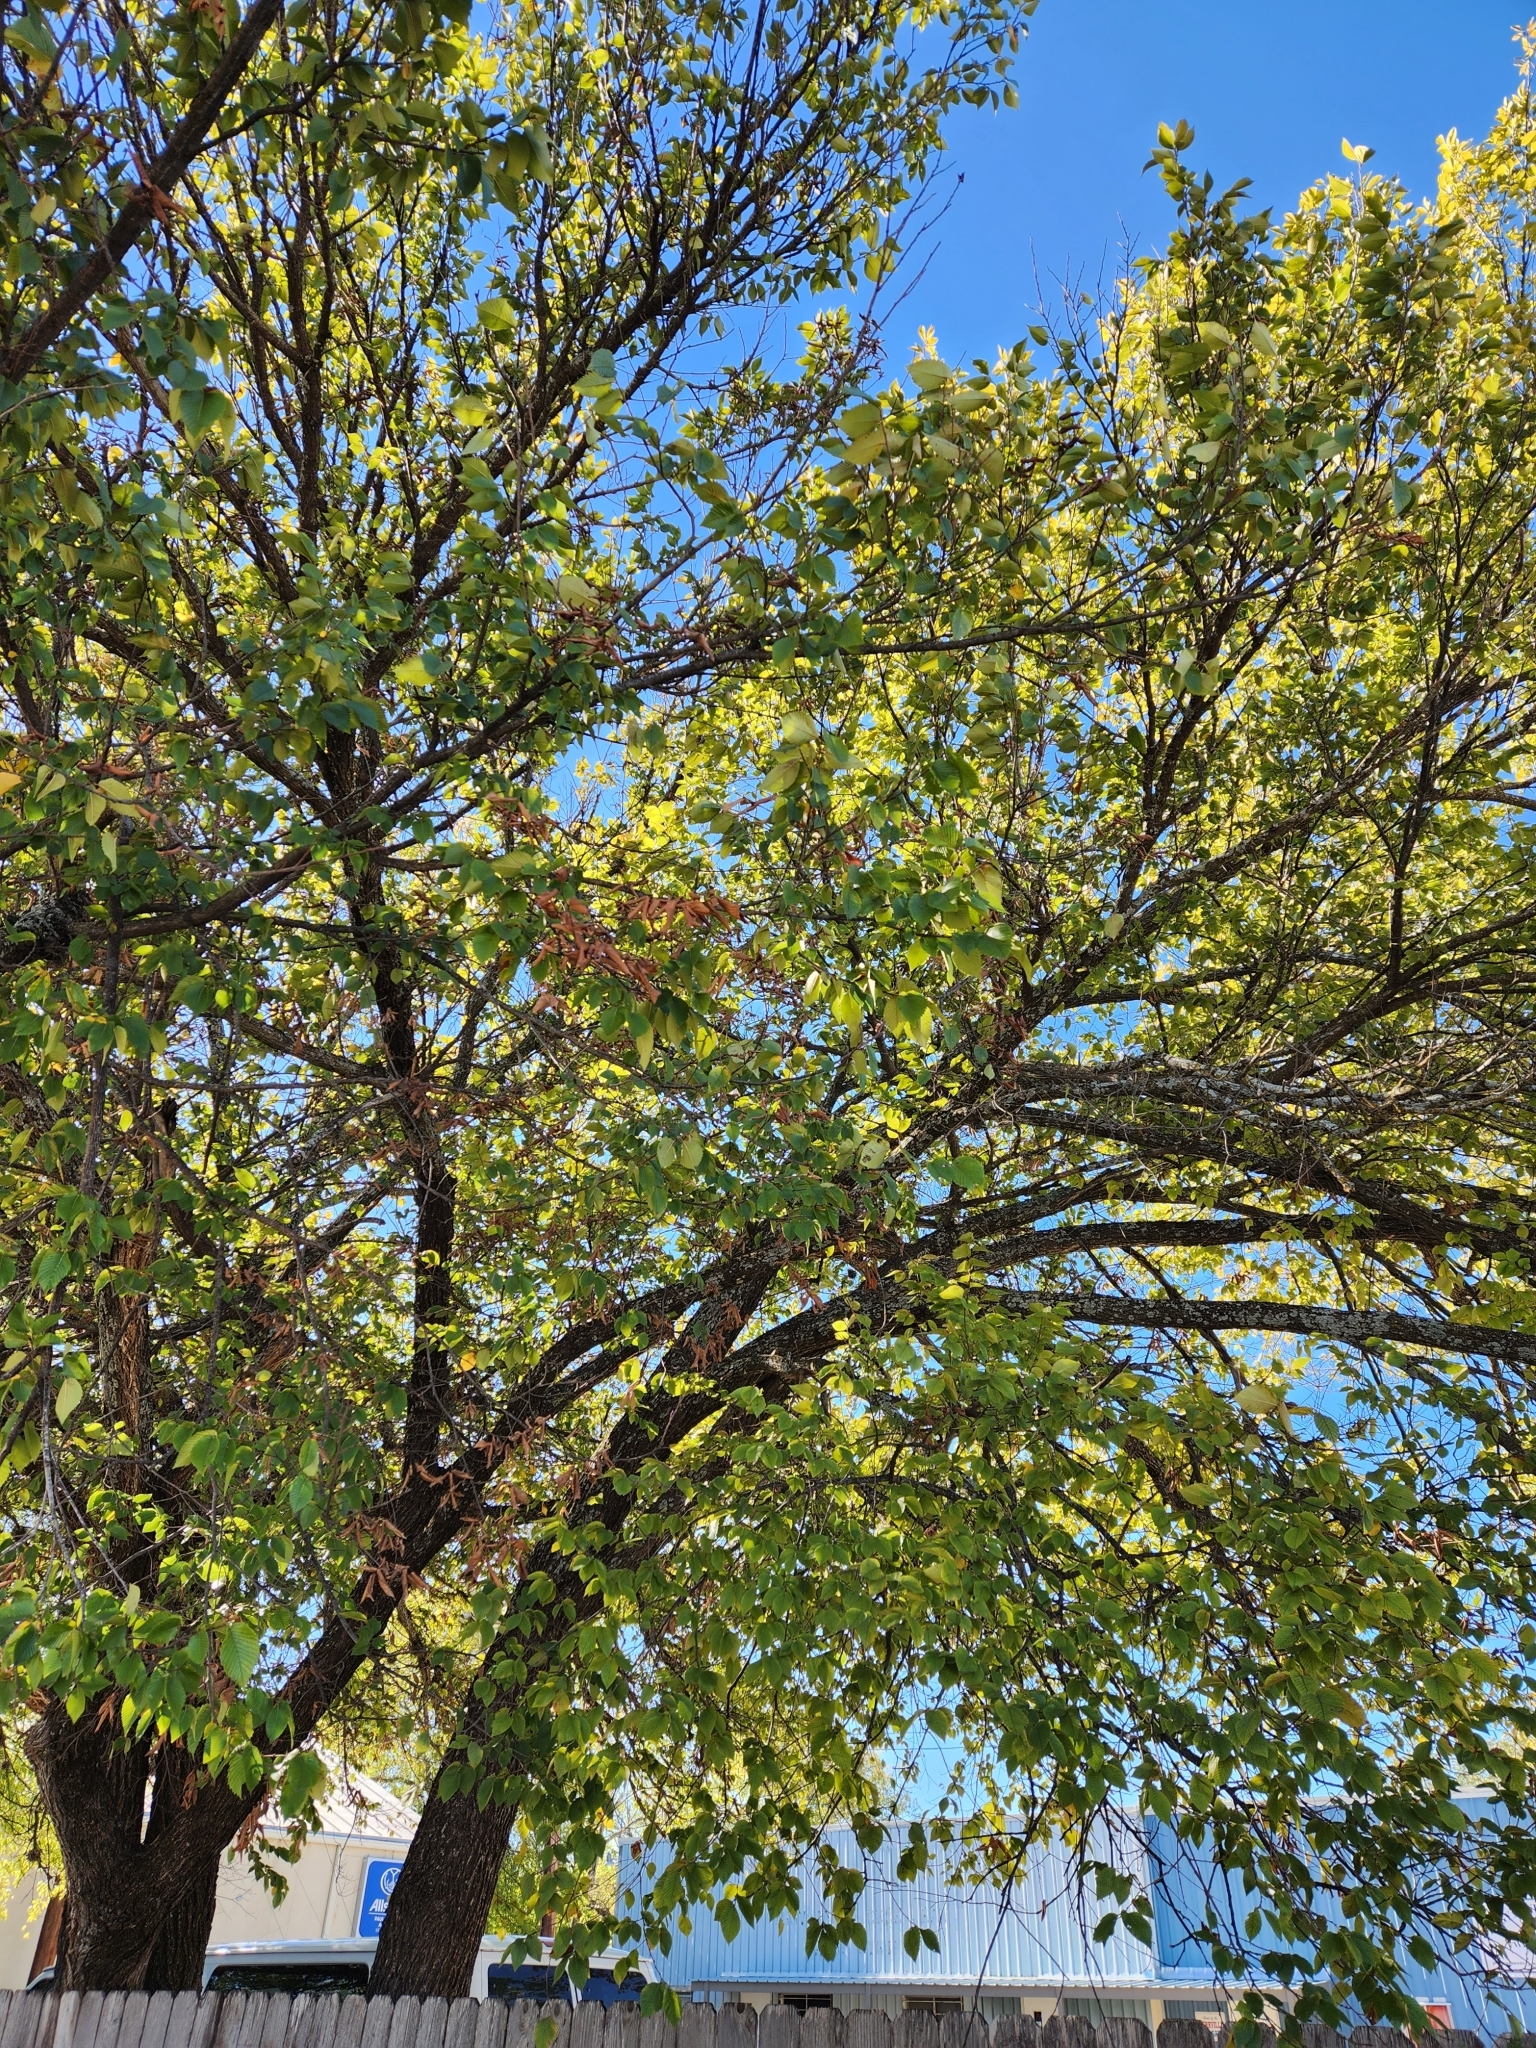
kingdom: Plantae
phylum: Tracheophyta
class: Magnoliopsida
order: Rosales
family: Ulmaceae
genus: Ulmus
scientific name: Ulmus americana
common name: American elm
